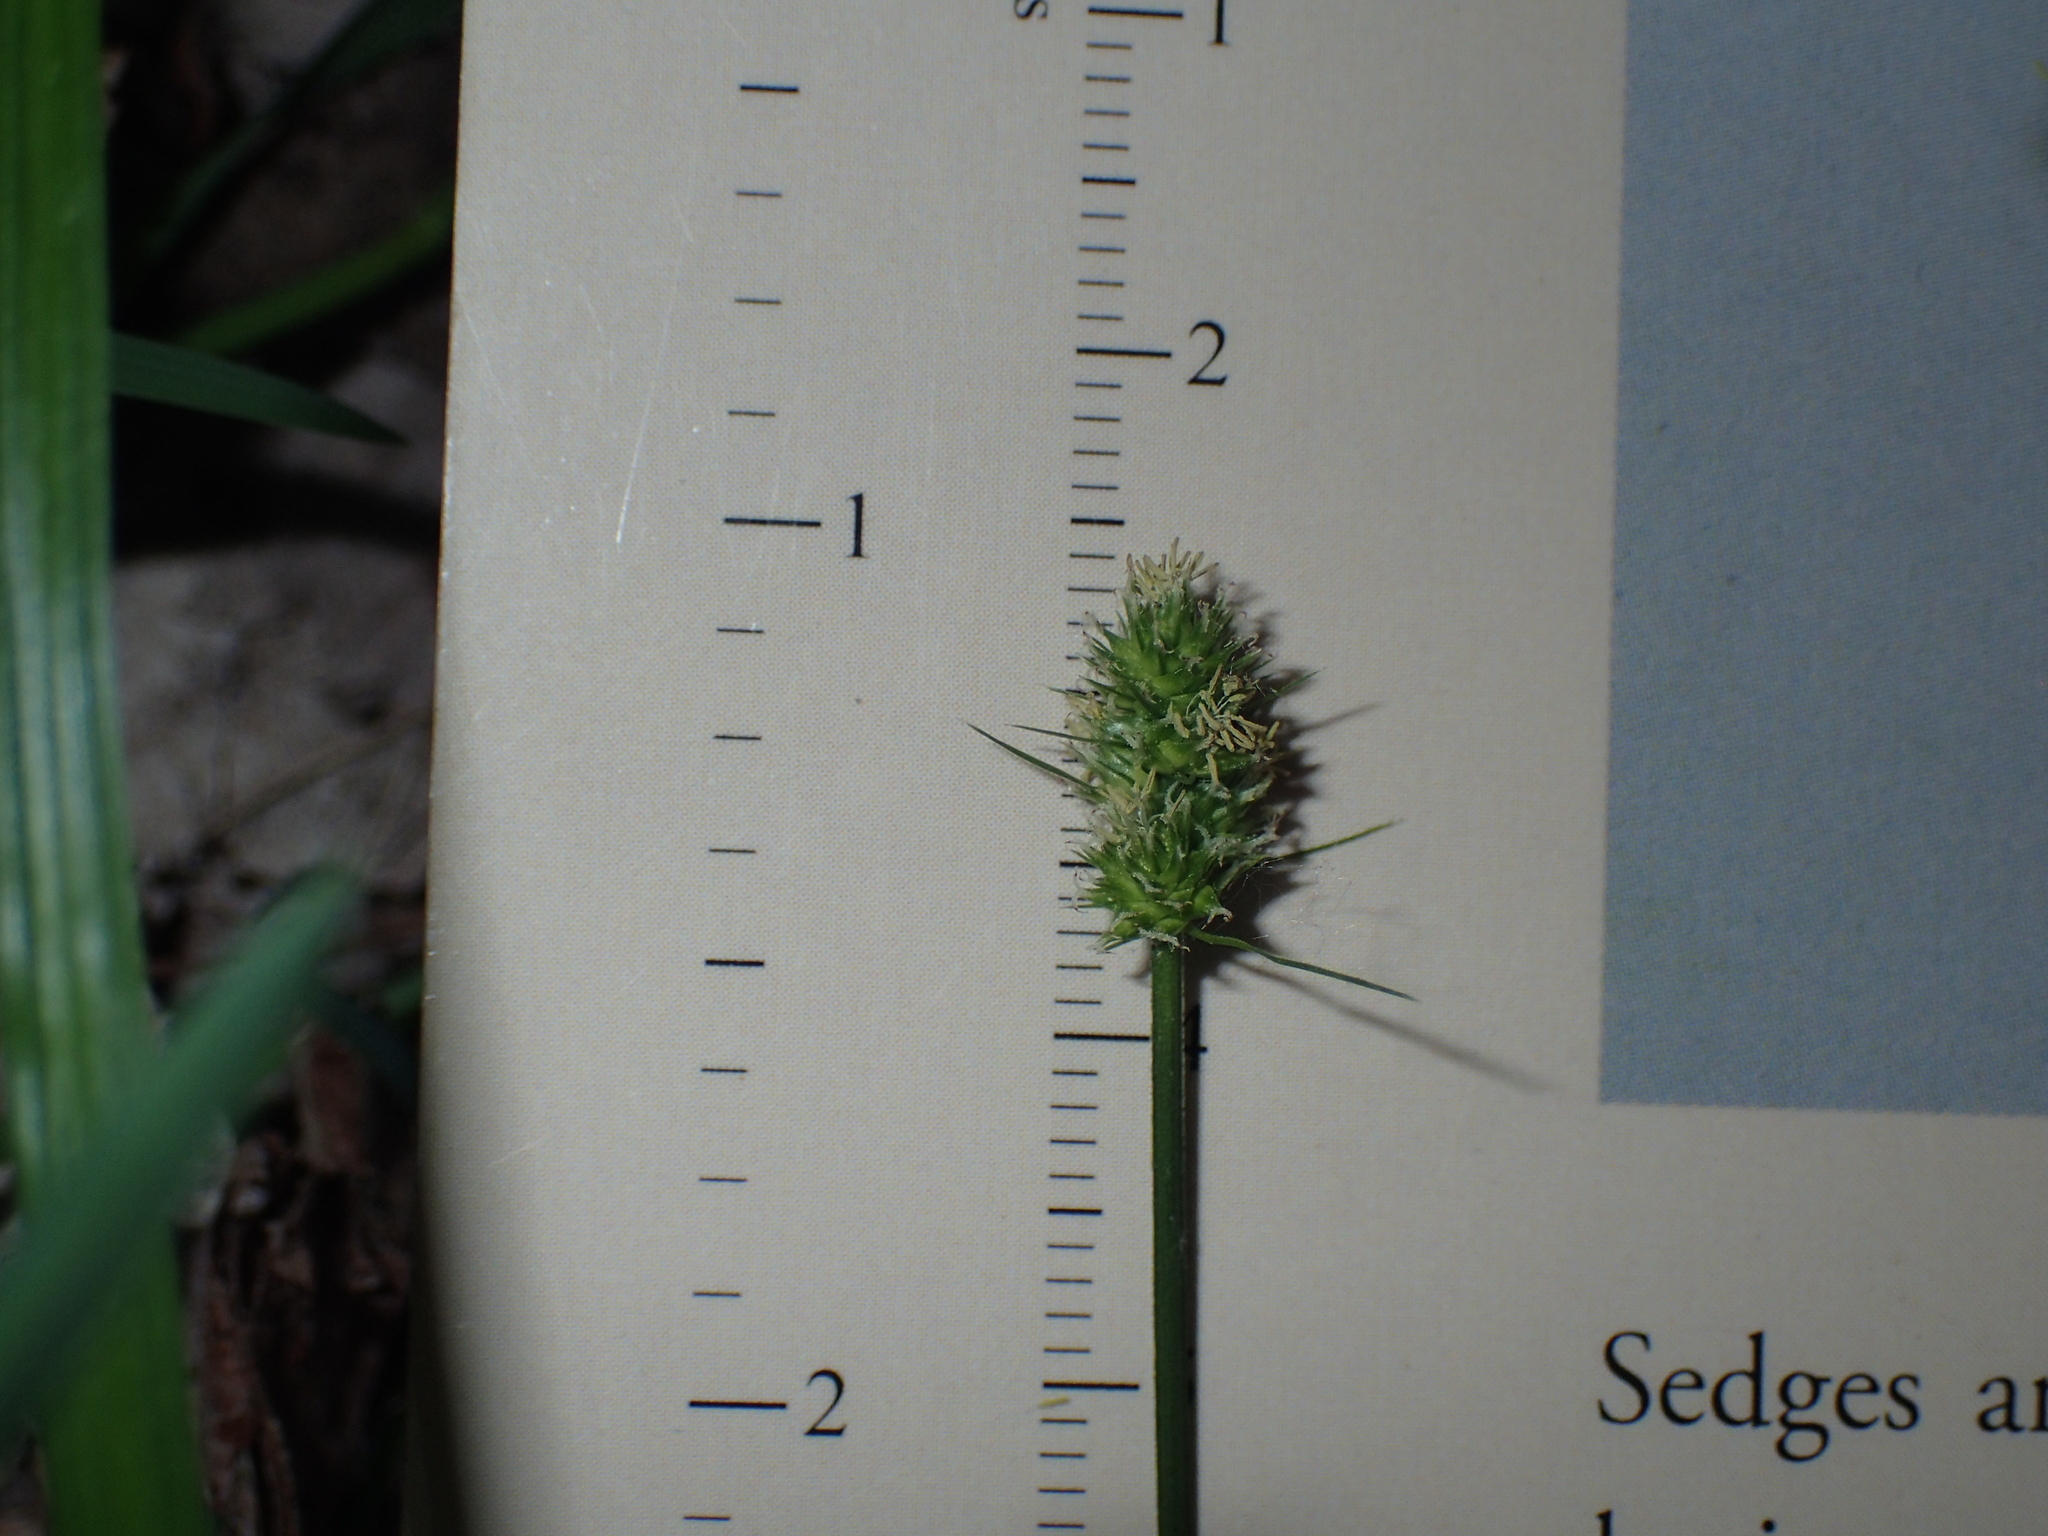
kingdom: Plantae
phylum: Tracheophyta
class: Liliopsida
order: Poales
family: Cyperaceae
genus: Carex
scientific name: Carex cephalophora
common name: Oval-headed sedge
